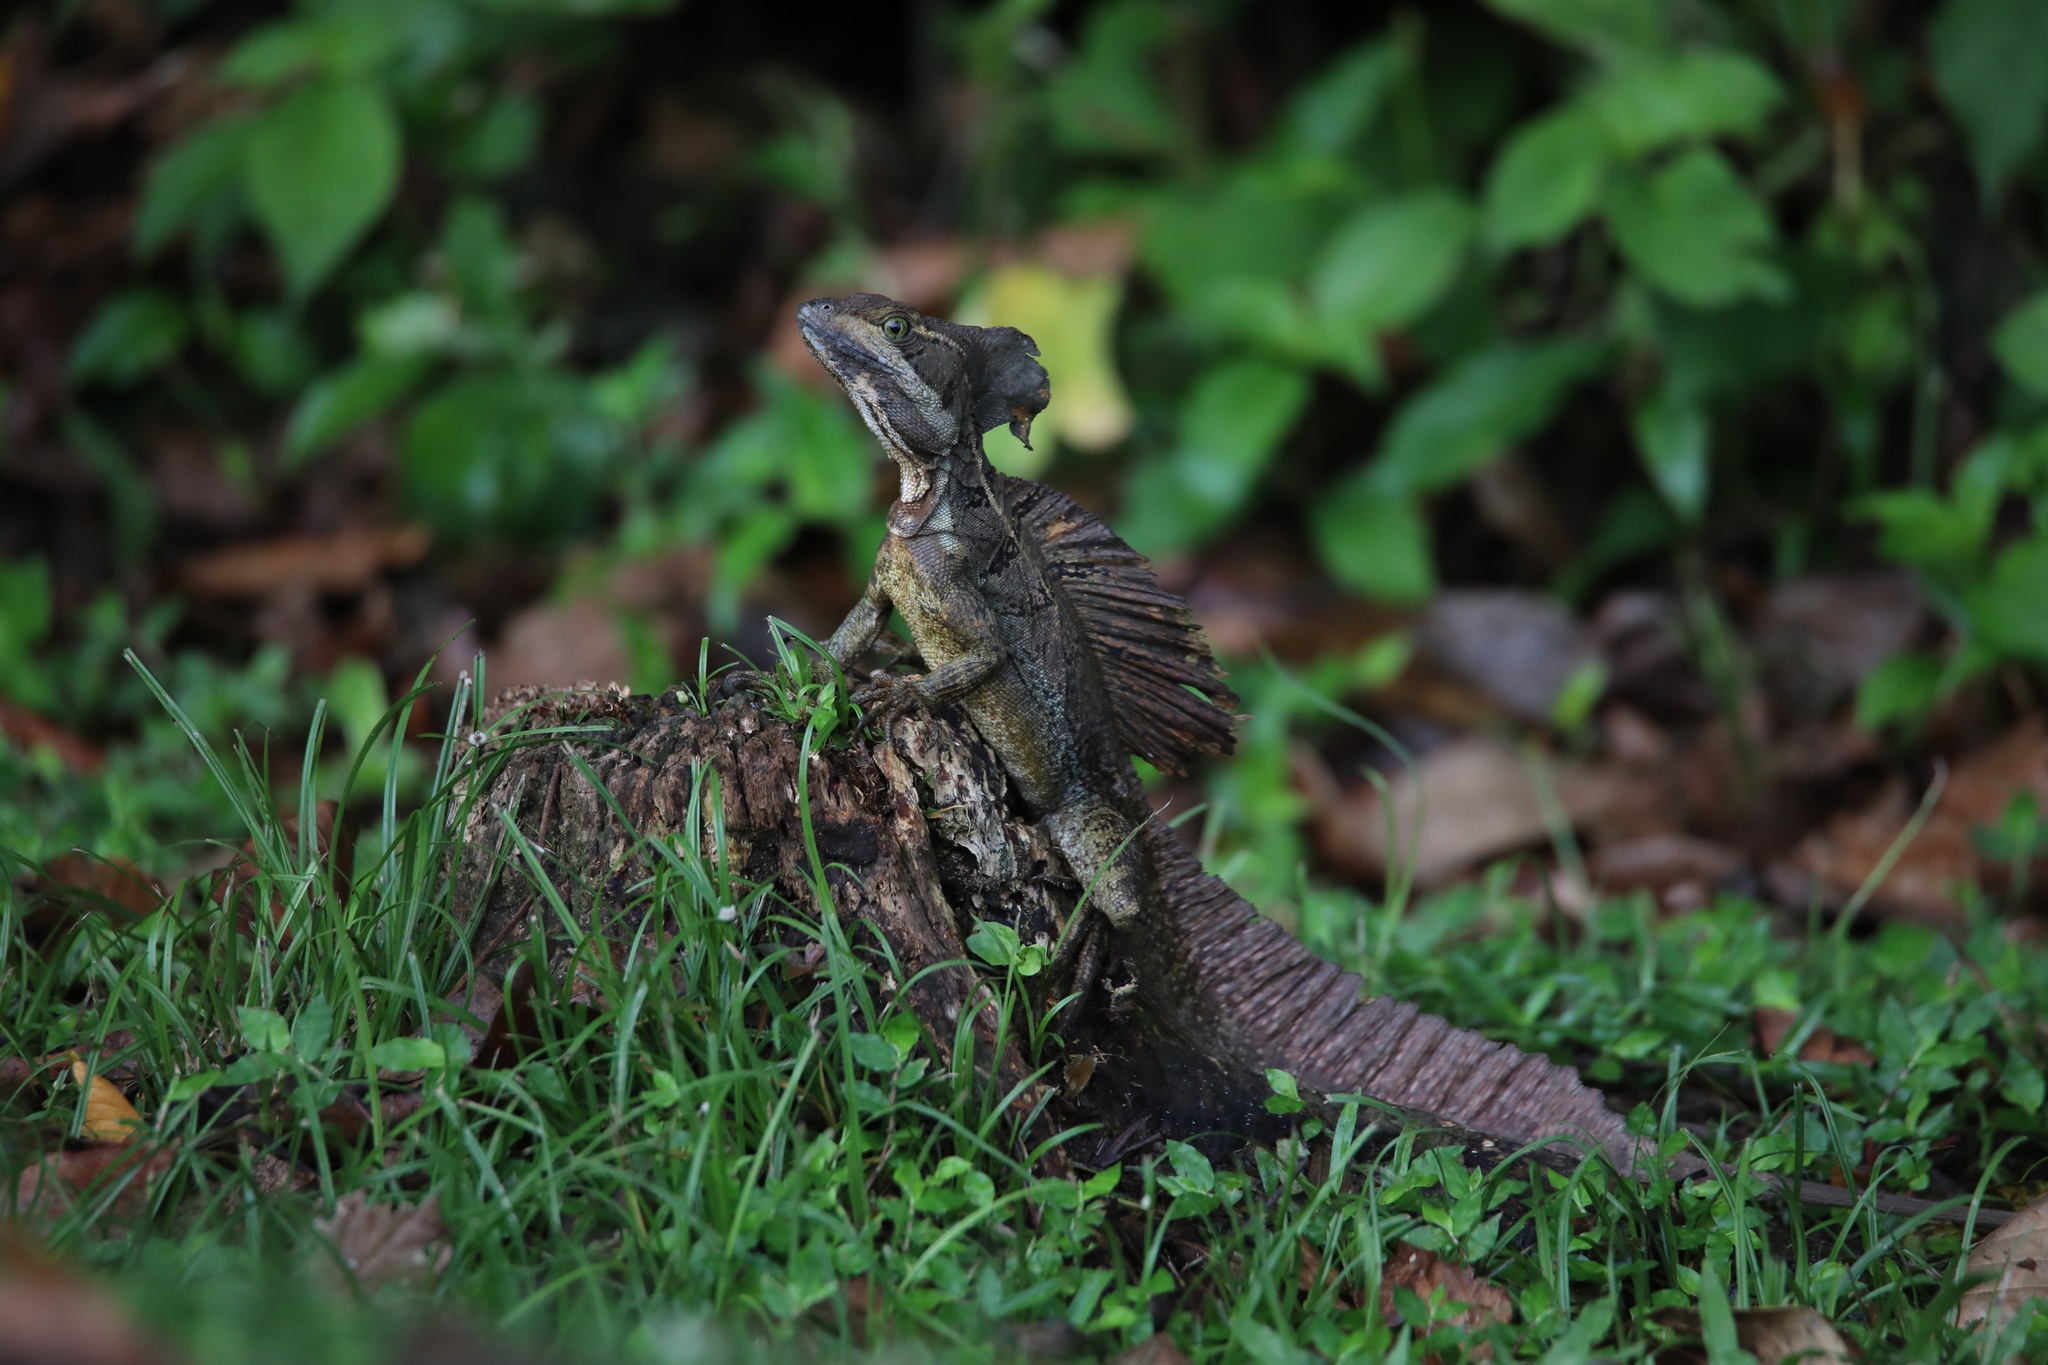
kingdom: Animalia
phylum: Chordata
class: Squamata
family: Corytophanidae
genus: Basiliscus
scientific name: Basiliscus basiliscus
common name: Common basilisk
